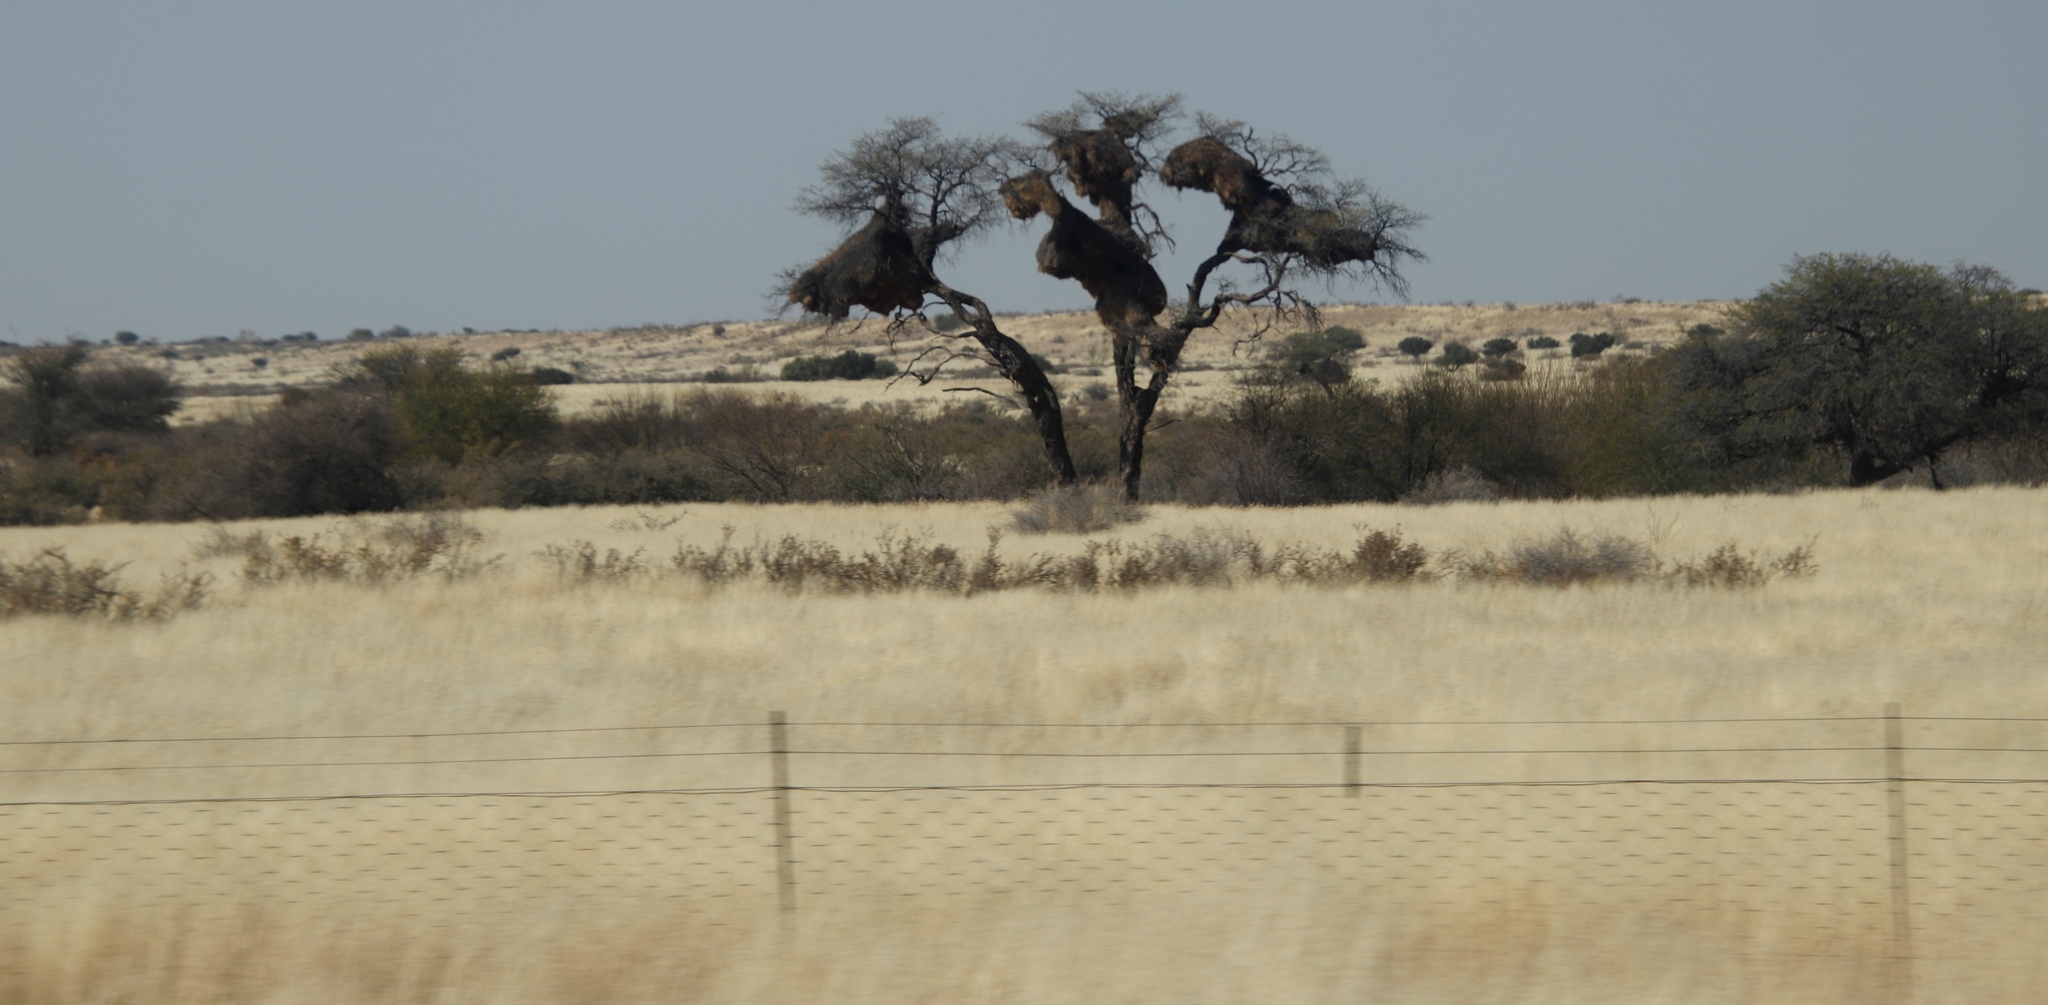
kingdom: Plantae
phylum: Tracheophyta
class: Magnoliopsida
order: Fabales
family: Fabaceae
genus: Vachellia
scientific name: Vachellia erioloba
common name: Camel thorn
